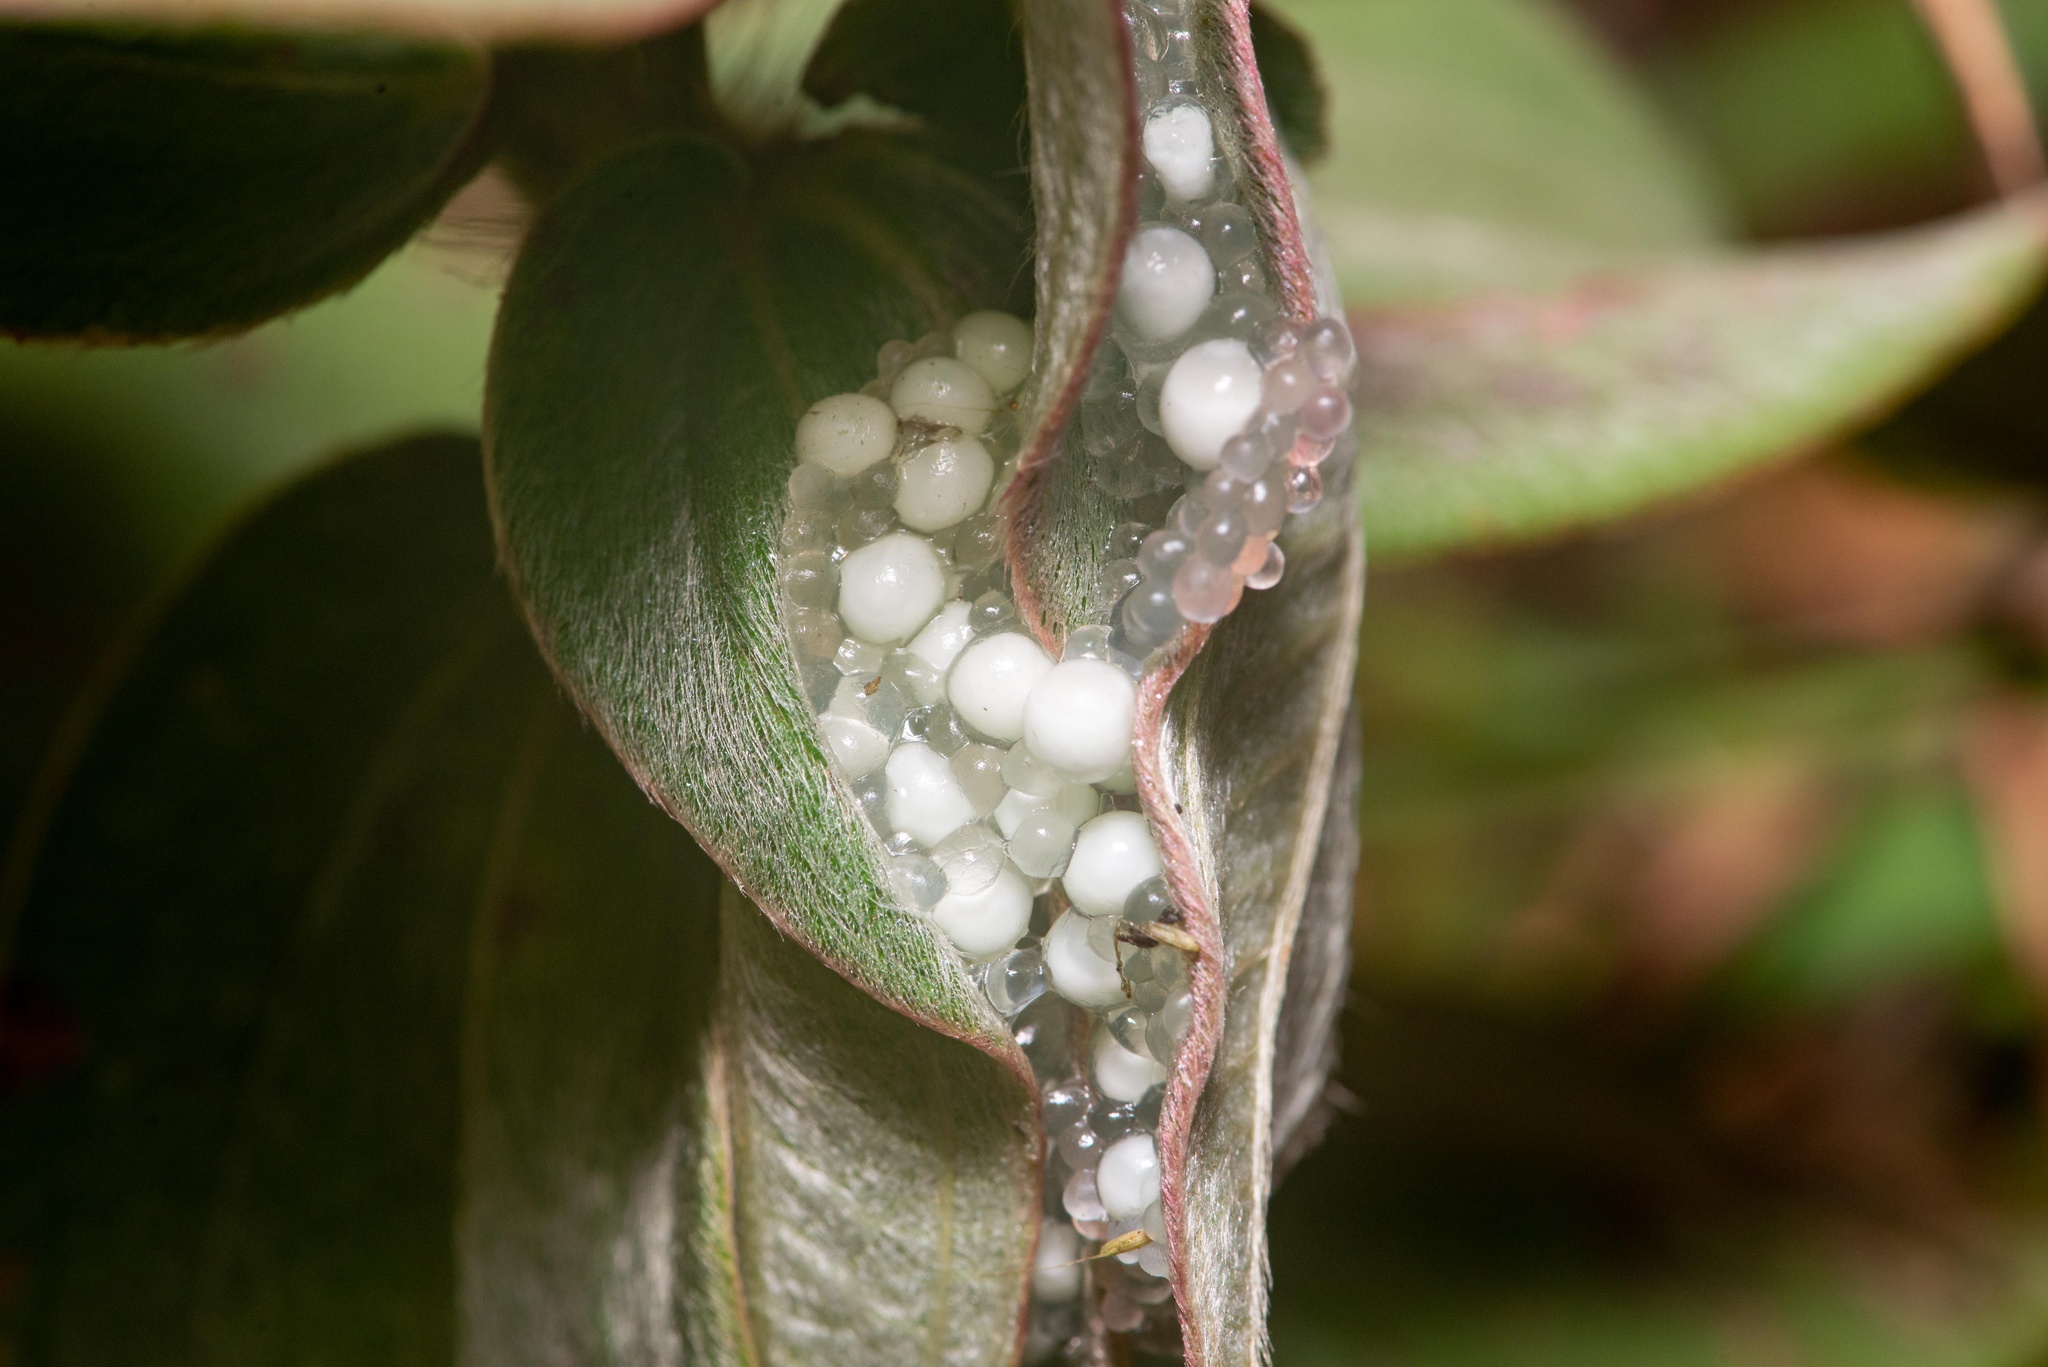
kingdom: Animalia
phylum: Chordata
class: Amphibia
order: Anura
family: Phyllomedusidae
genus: Phyllomedusa
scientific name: Phyllomedusa distincta
